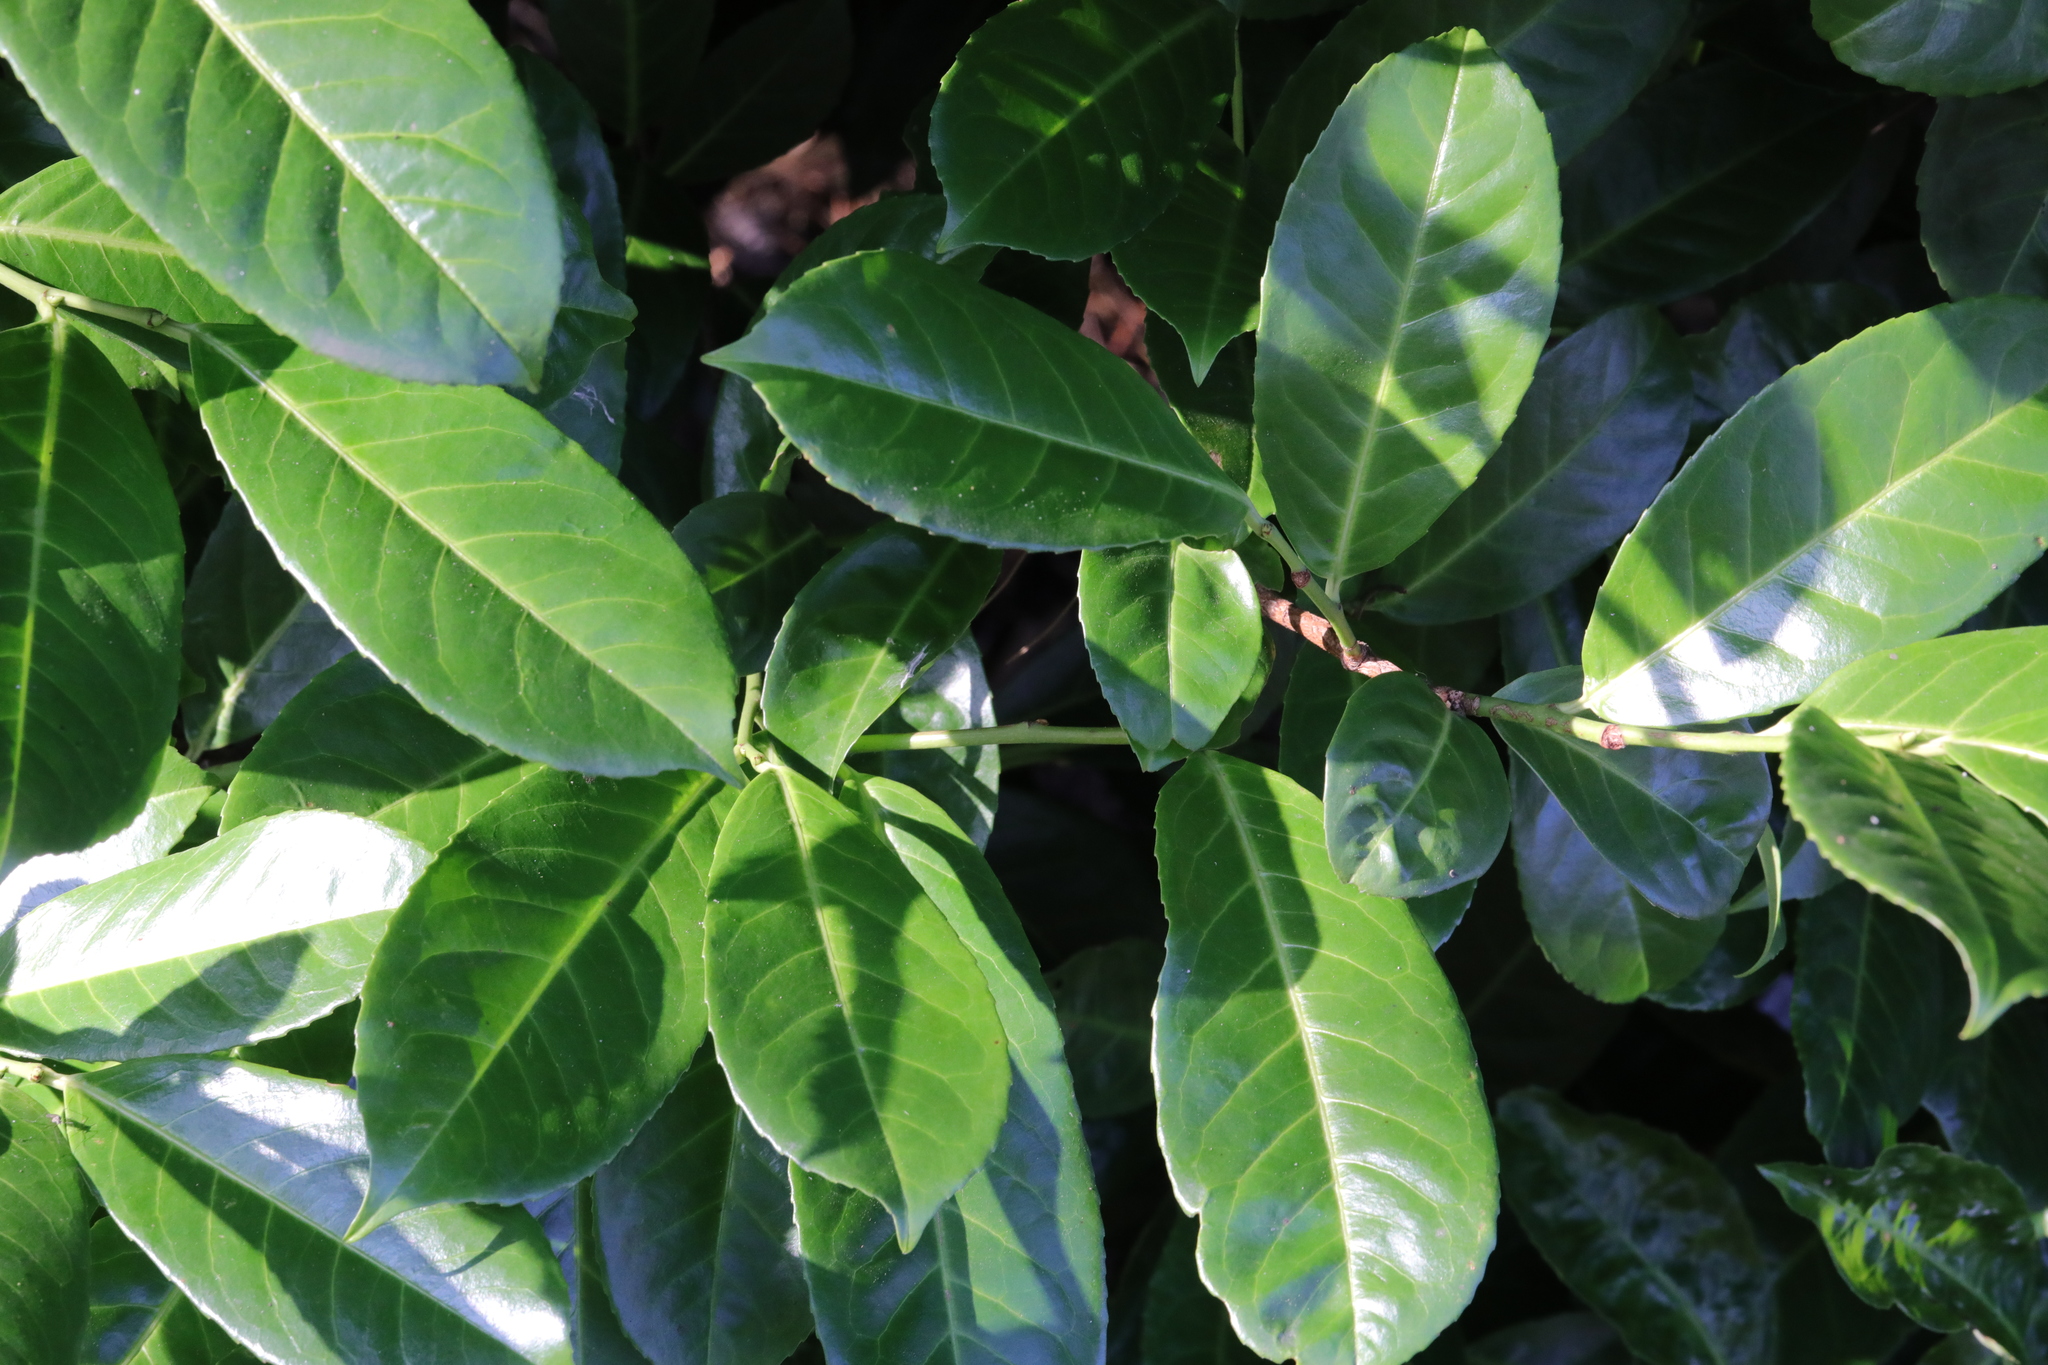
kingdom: Plantae
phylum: Tracheophyta
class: Magnoliopsida
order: Rosales
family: Rosaceae
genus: Prunus
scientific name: Prunus laurocerasus
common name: Cherry laurel
